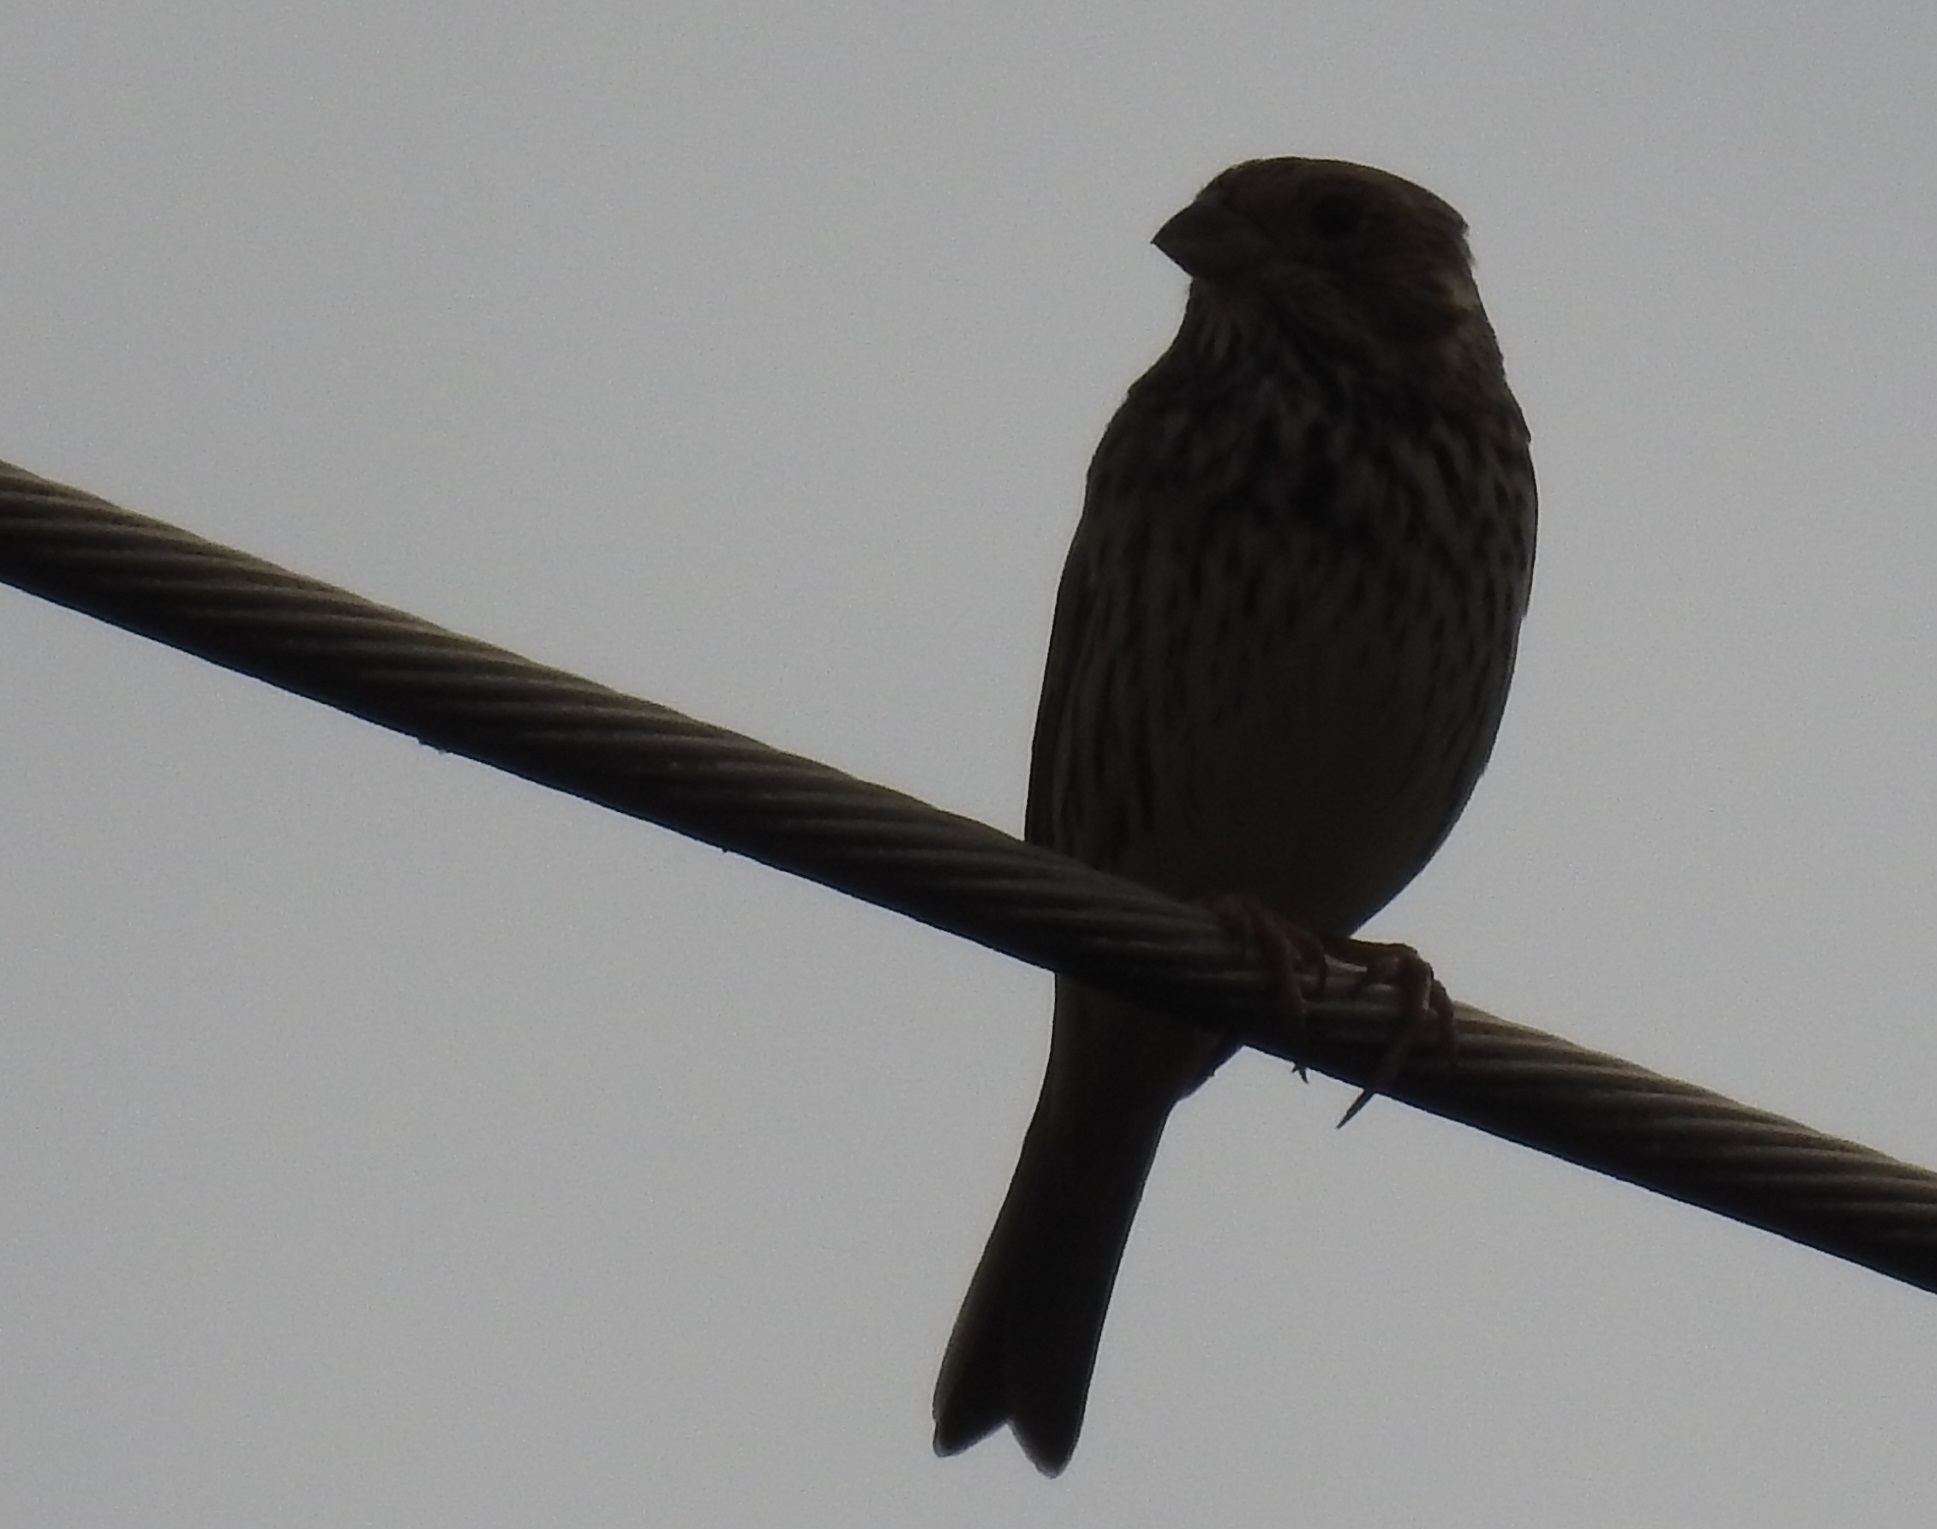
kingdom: Animalia
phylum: Chordata
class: Aves
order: Passeriformes
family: Emberizidae
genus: Emberiza
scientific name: Emberiza calandra
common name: Corn bunting
